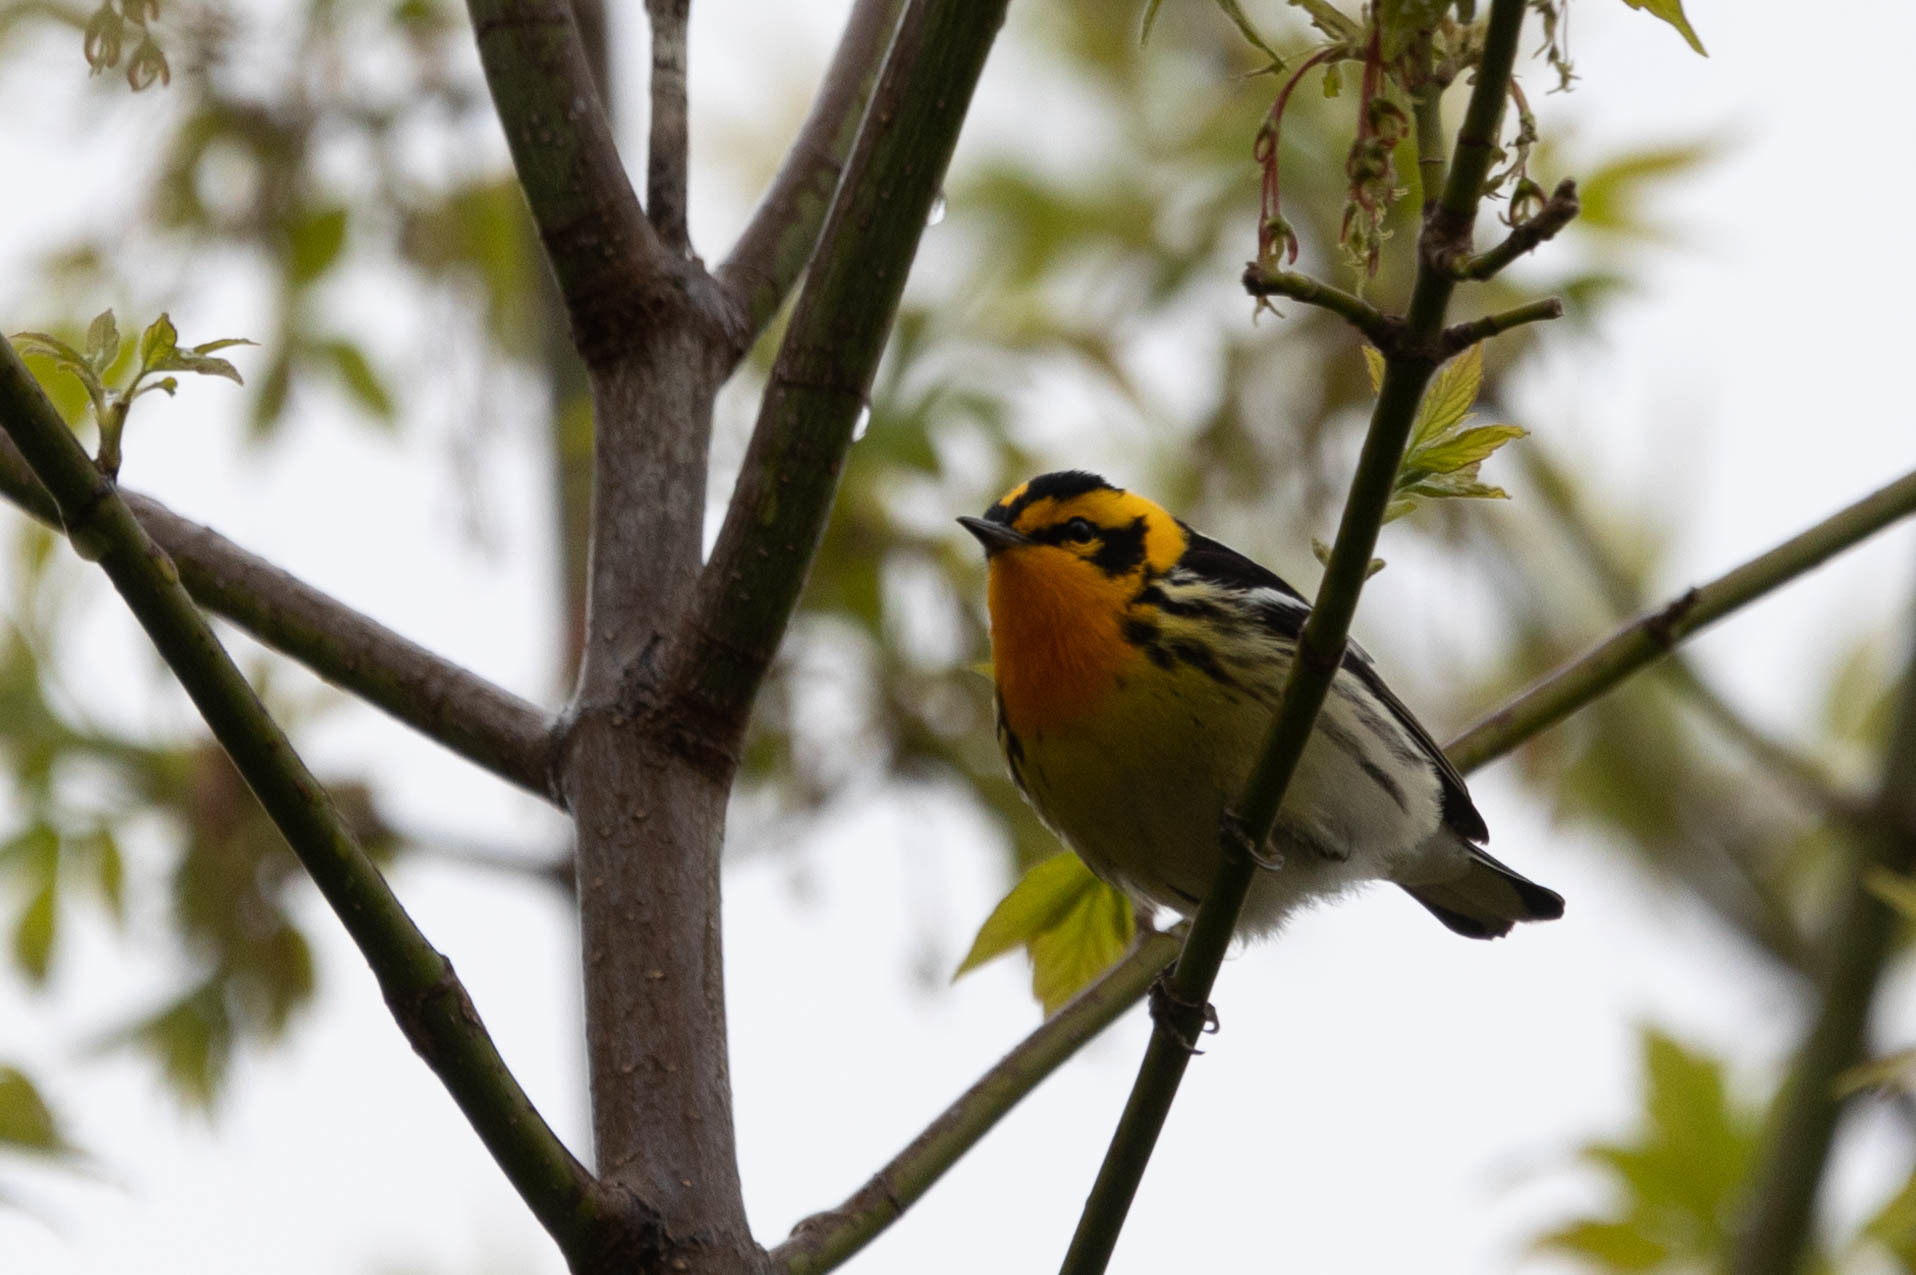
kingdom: Animalia
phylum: Chordata
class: Aves
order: Passeriformes
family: Parulidae
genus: Setophaga
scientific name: Setophaga fusca
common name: Blackburnian warbler
